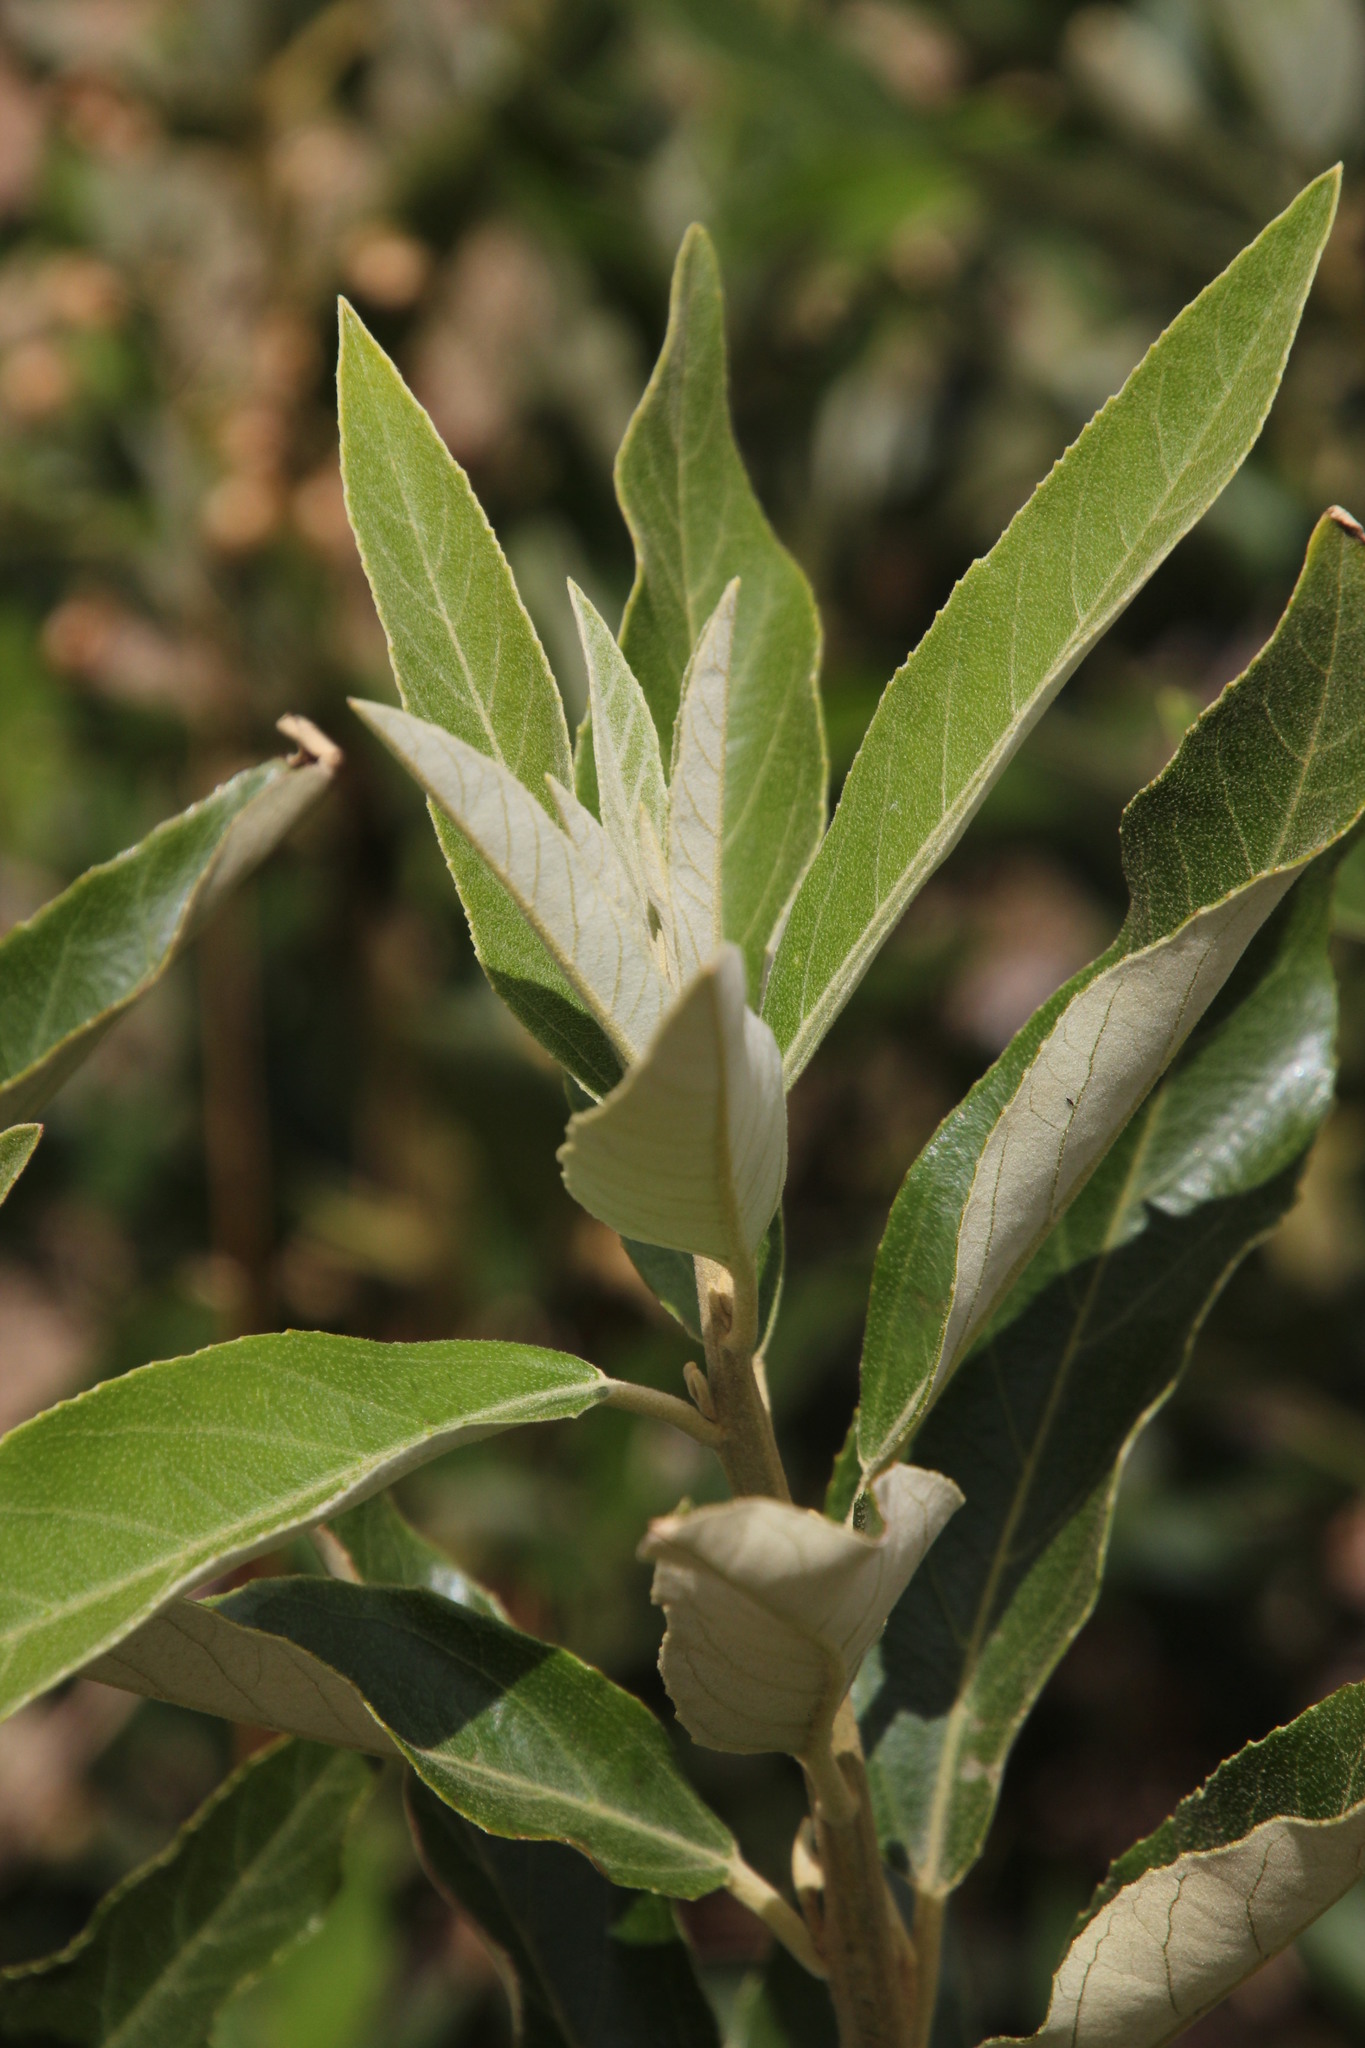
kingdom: Plantae
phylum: Tracheophyta
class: Magnoliopsida
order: Malpighiales
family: Achariaceae
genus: Kiggelaria
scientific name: Kiggelaria africana
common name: Wild peach
